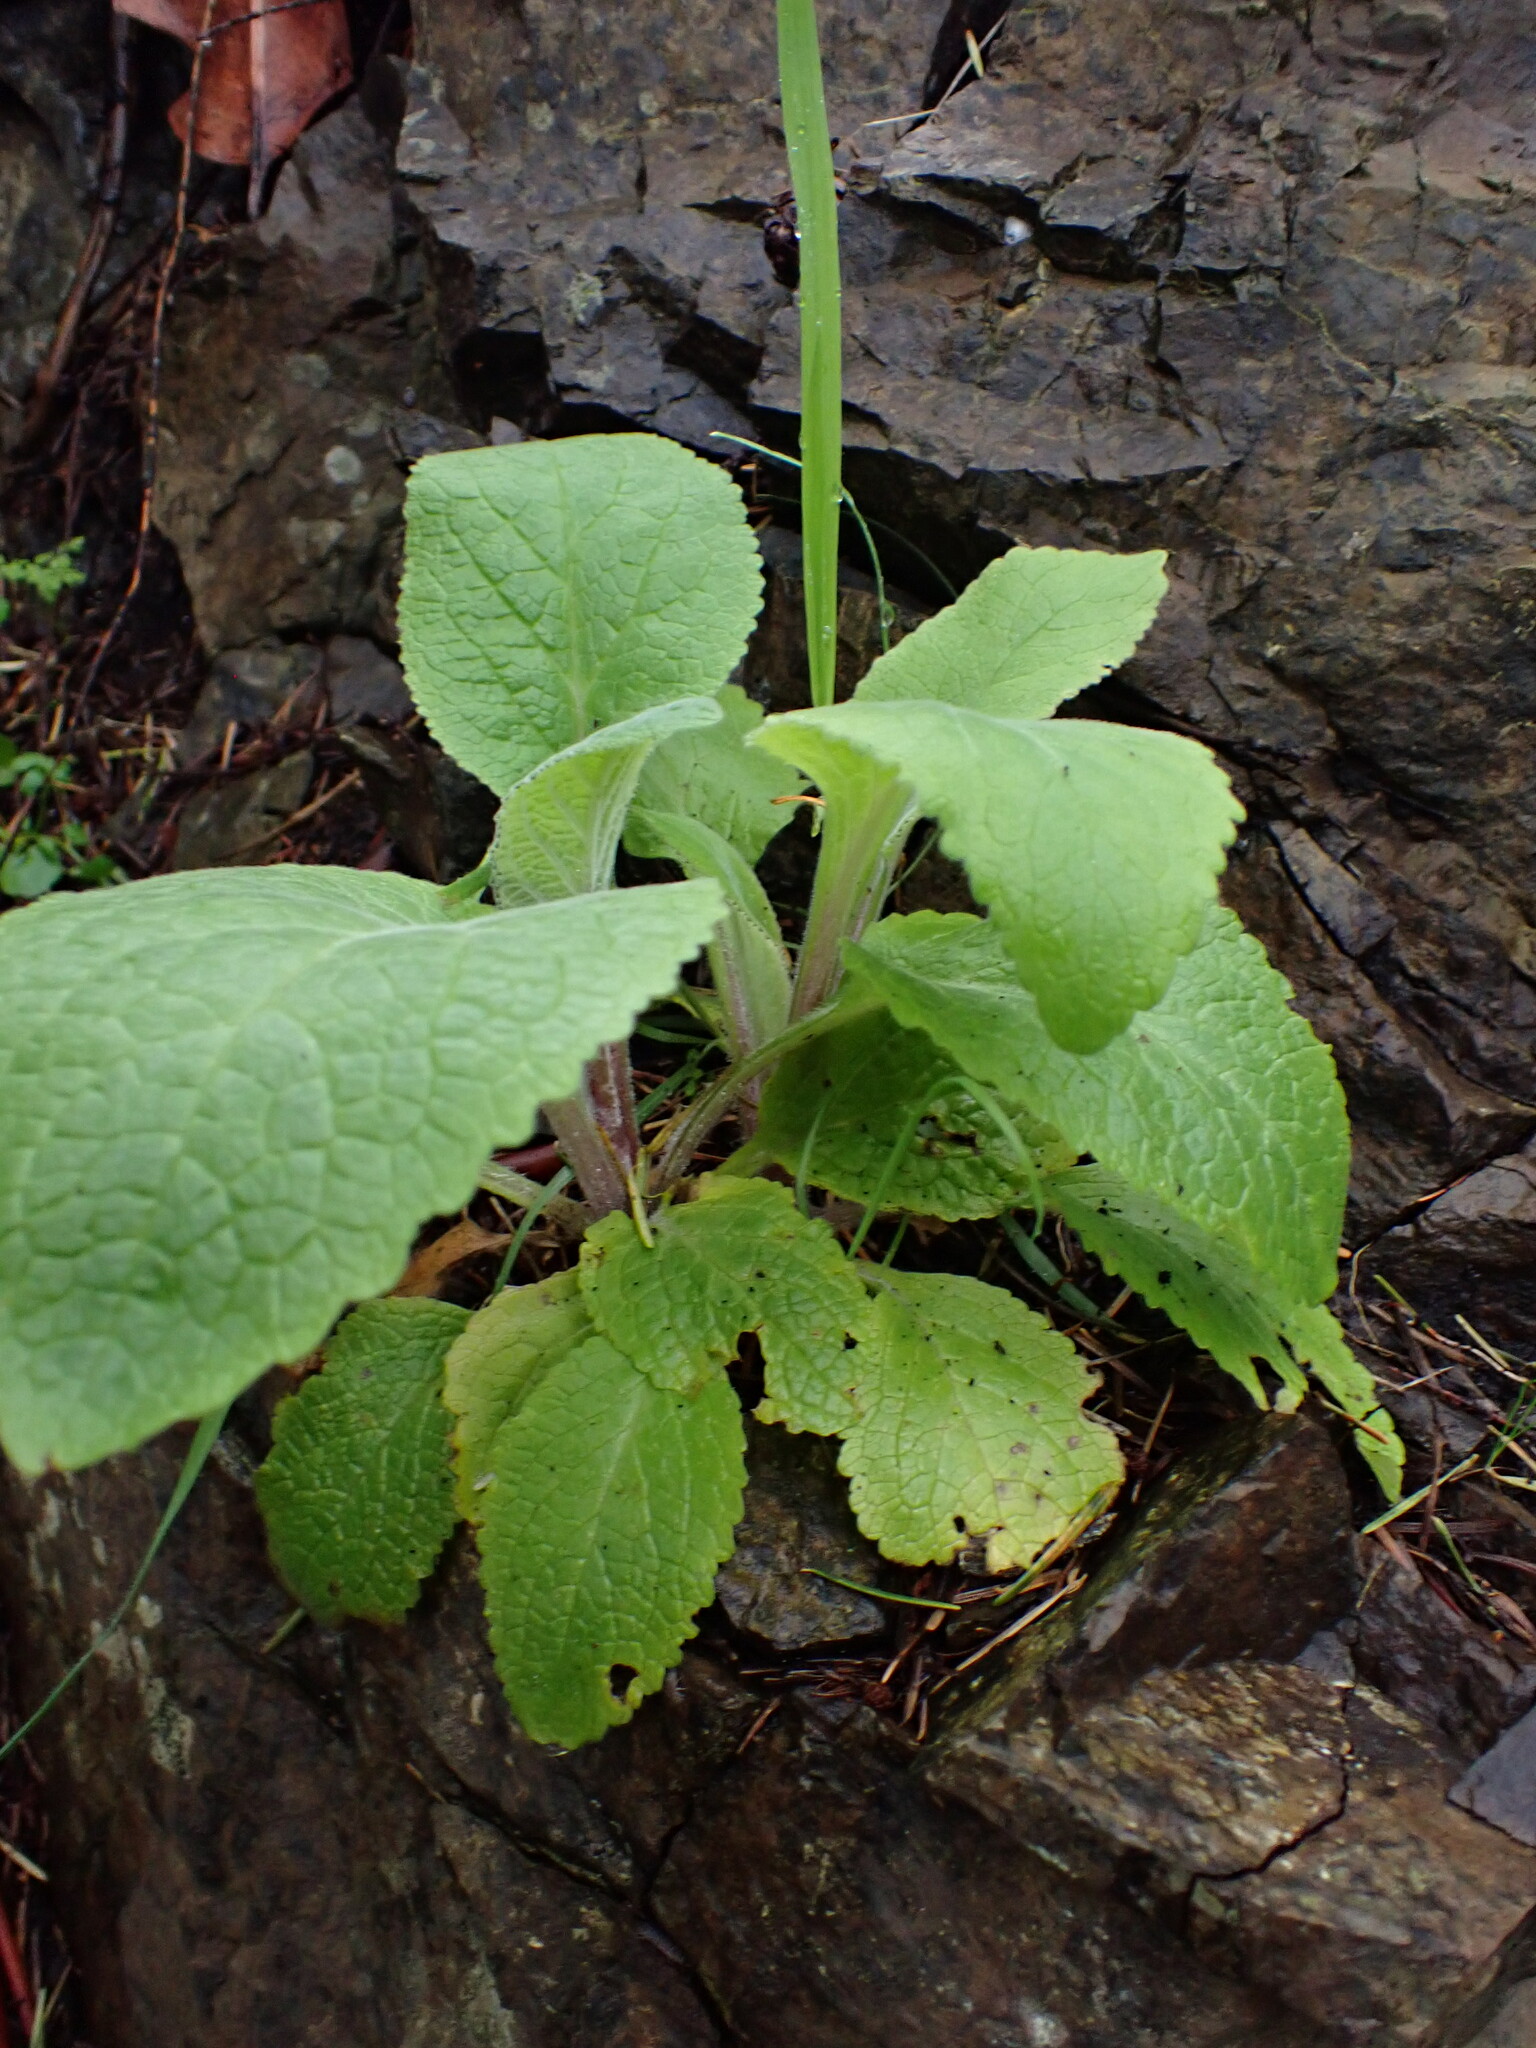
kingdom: Plantae
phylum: Tracheophyta
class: Magnoliopsida
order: Lamiales
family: Plantaginaceae
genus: Digitalis
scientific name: Digitalis purpurea
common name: Foxglove
